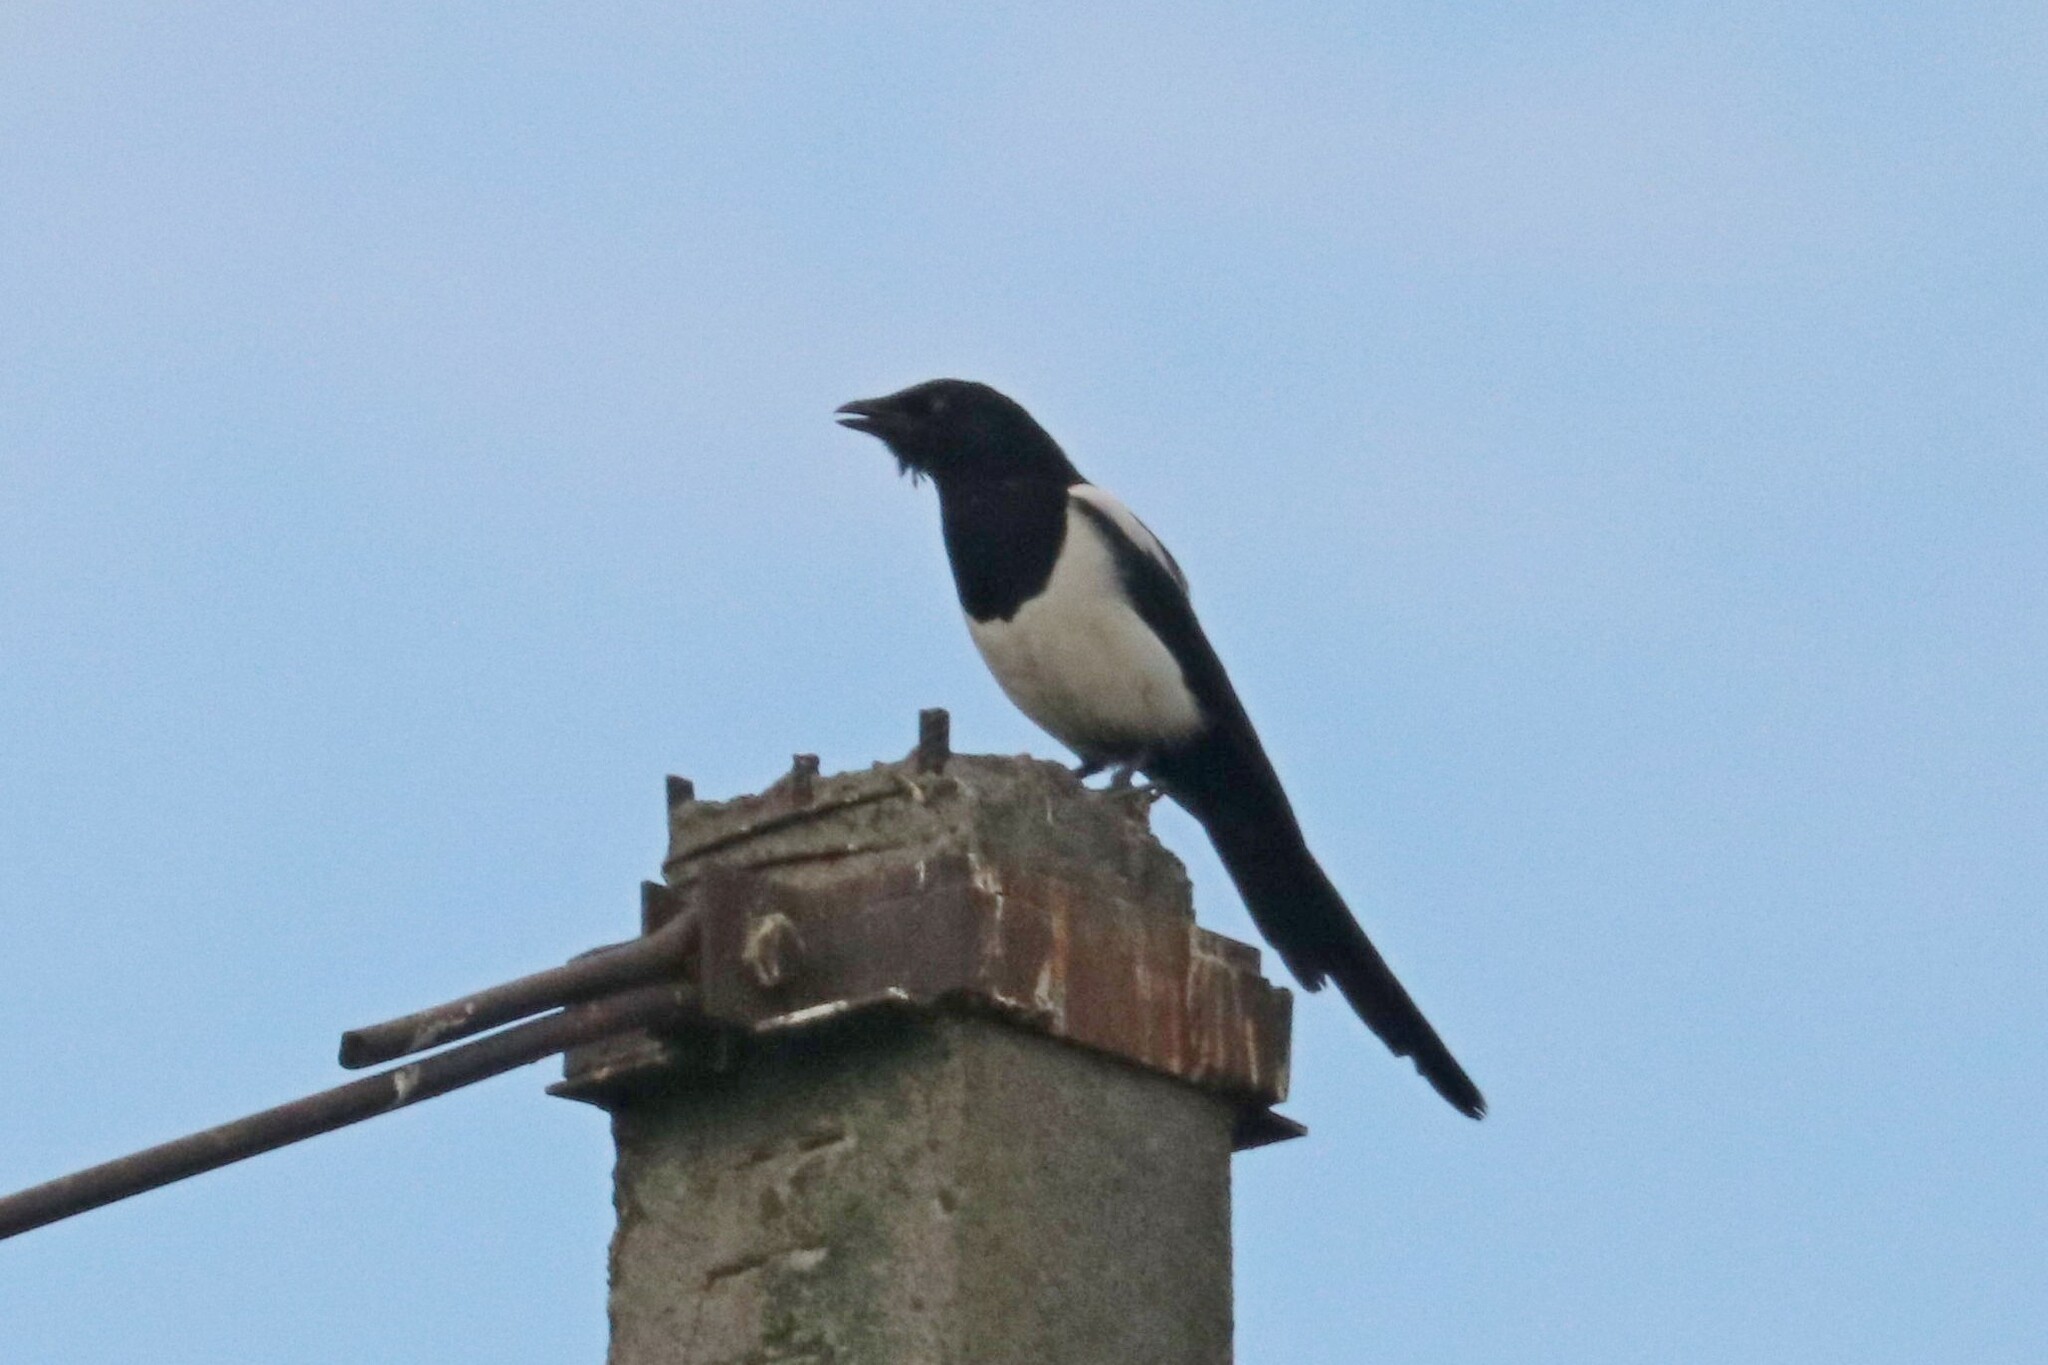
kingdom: Animalia
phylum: Chordata
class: Aves
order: Passeriformes
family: Corvidae
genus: Pica
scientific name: Pica pica
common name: Eurasian magpie
